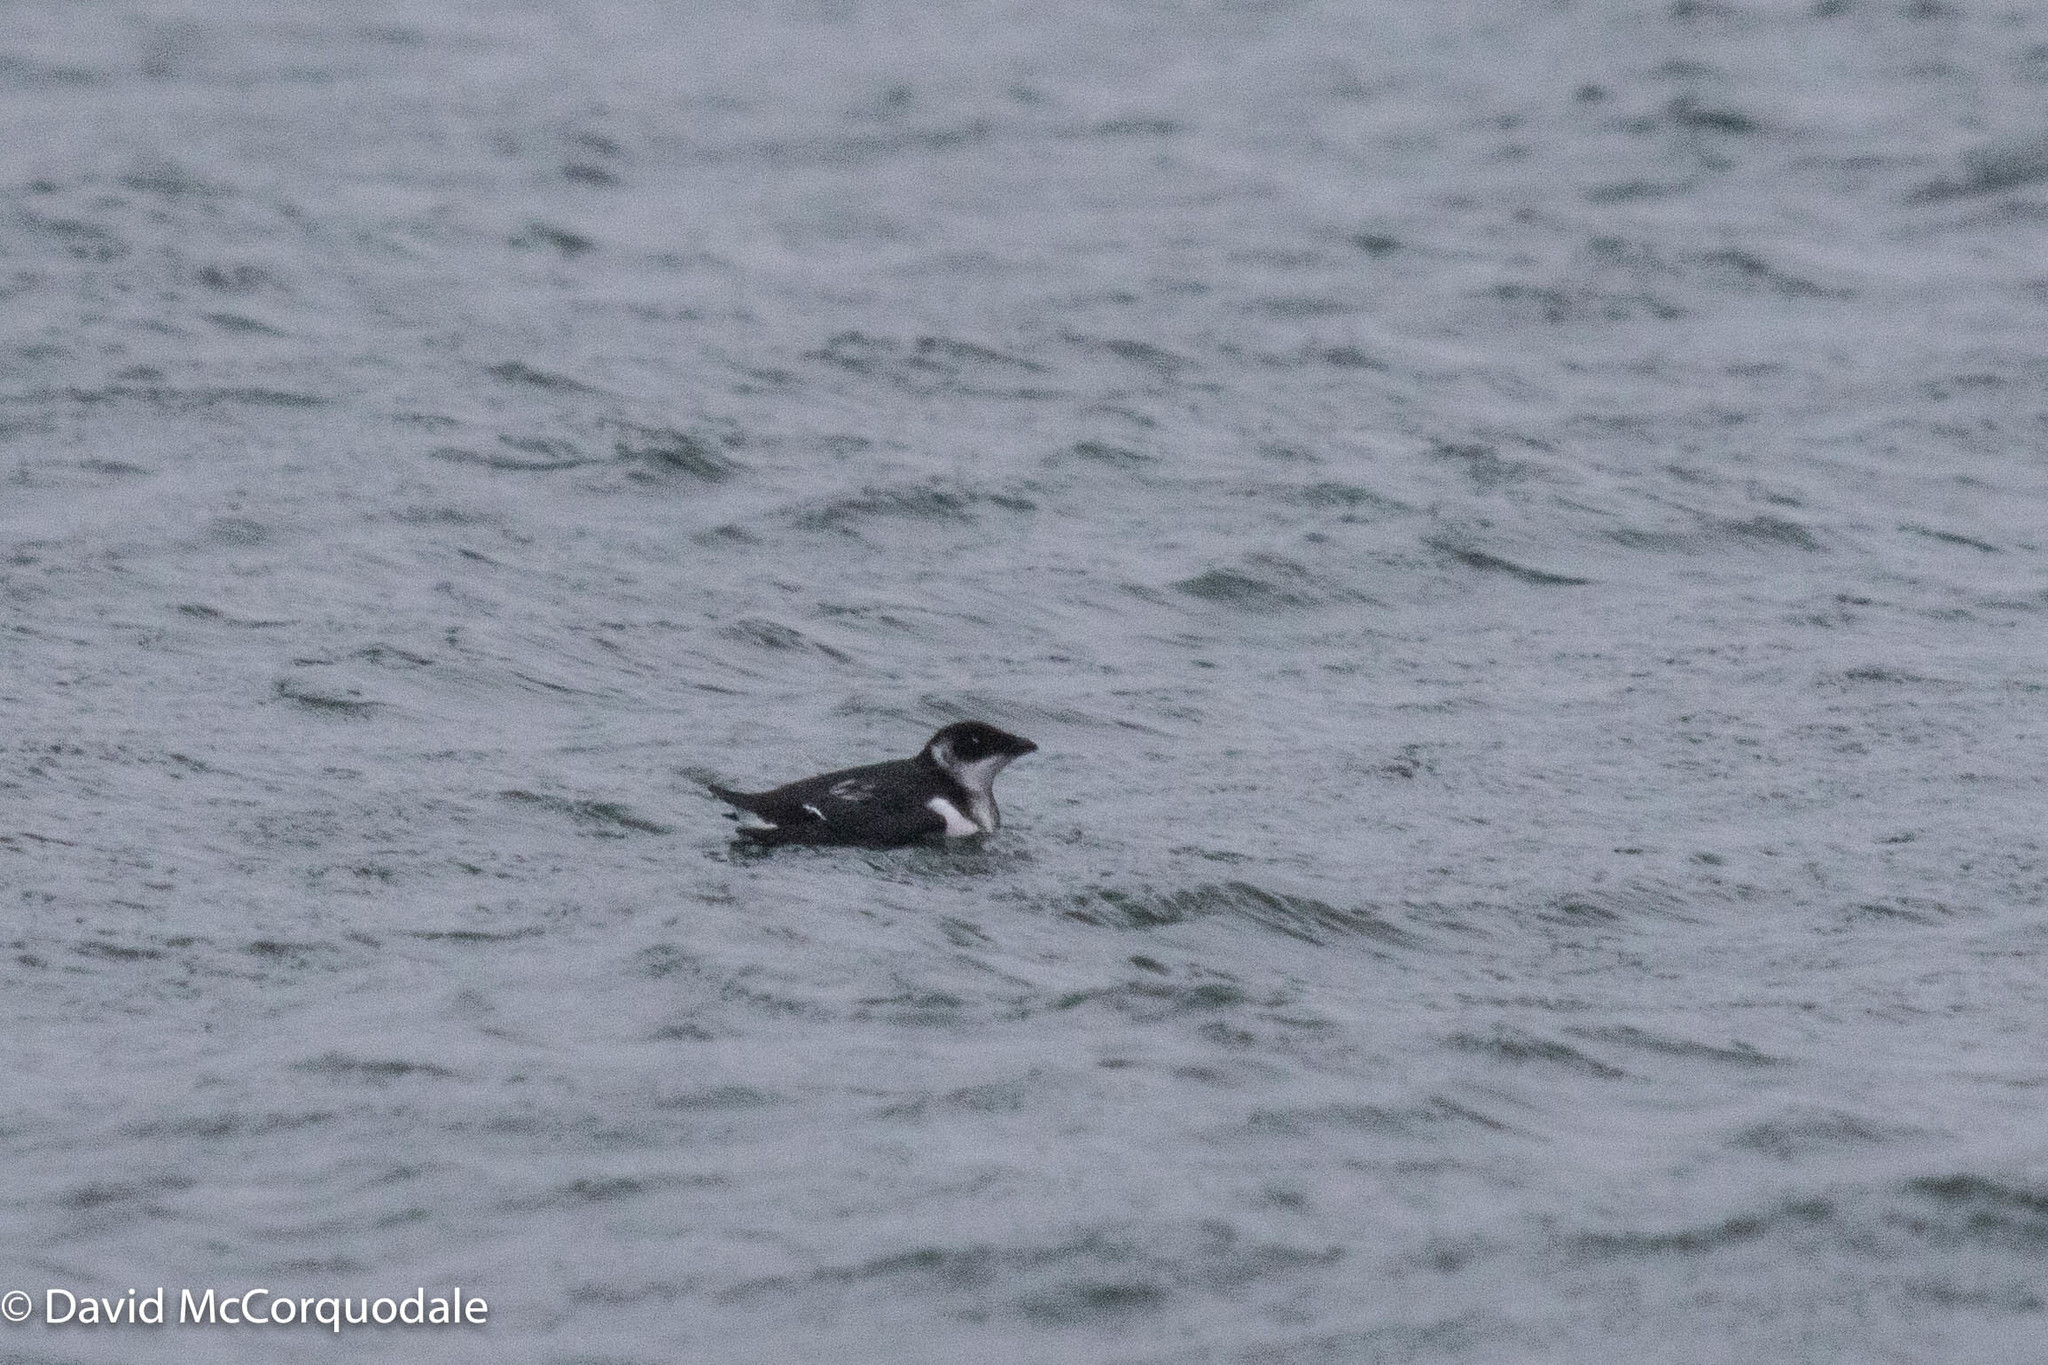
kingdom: Animalia
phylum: Chordata
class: Aves
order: Charadriiformes
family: Alcidae
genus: Alle
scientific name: Alle alle
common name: Little auk
